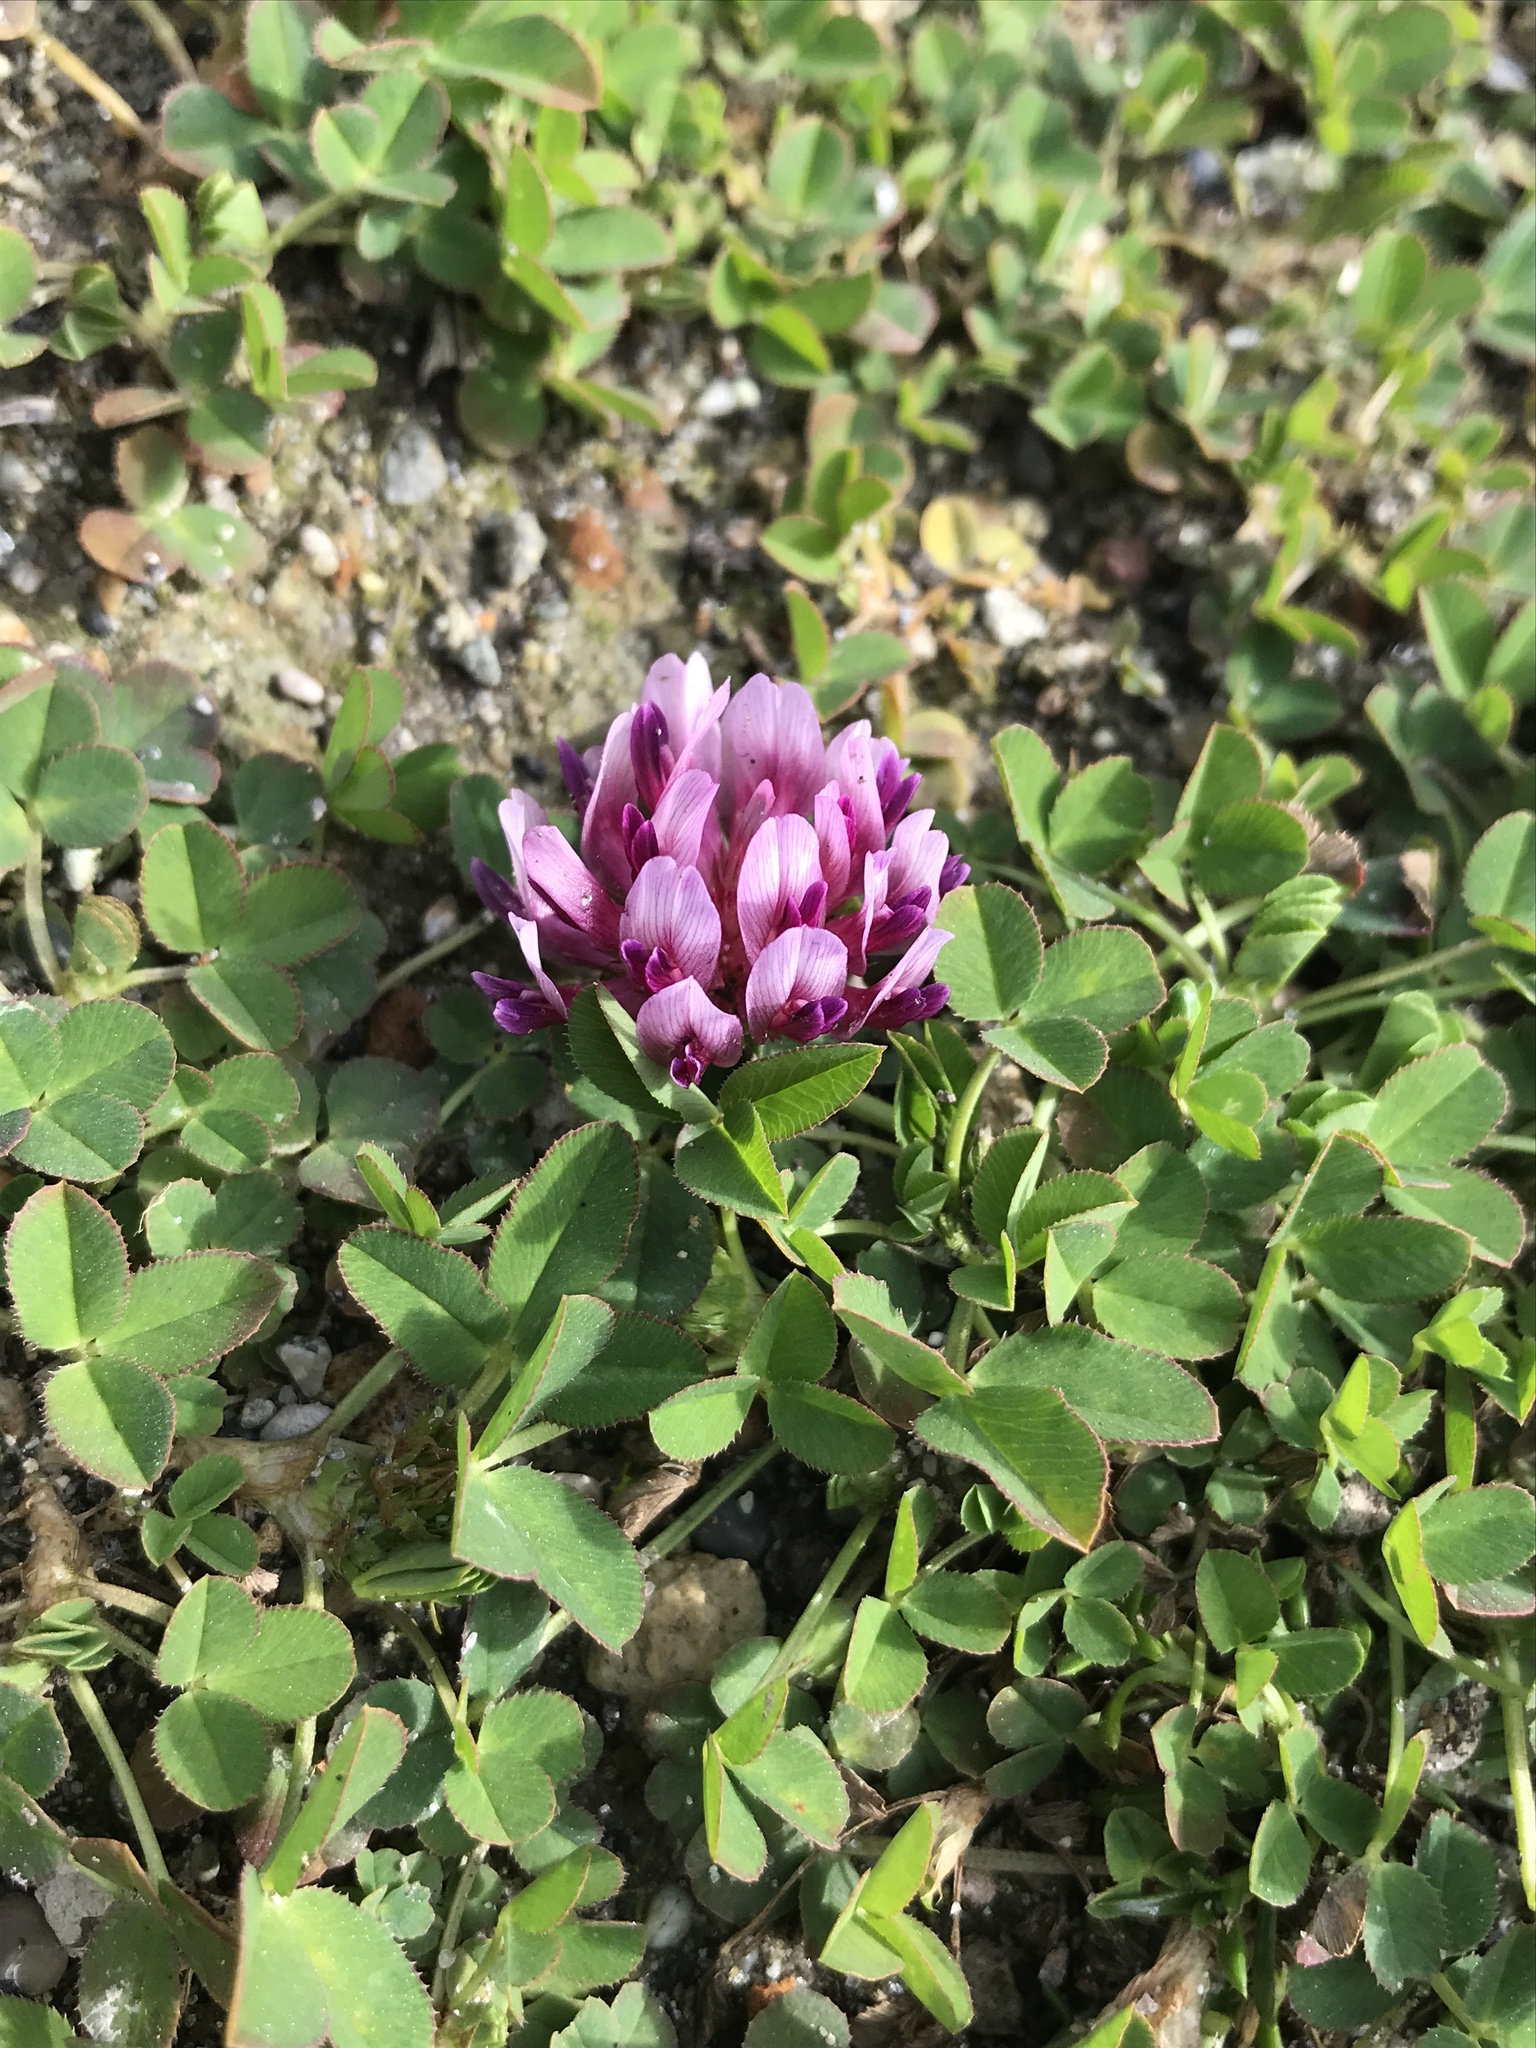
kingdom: Plantae
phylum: Tracheophyta
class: Magnoliopsida
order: Fabales
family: Fabaceae
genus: Trifolium
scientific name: Trifolium wormskioldii
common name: Springbank clover
